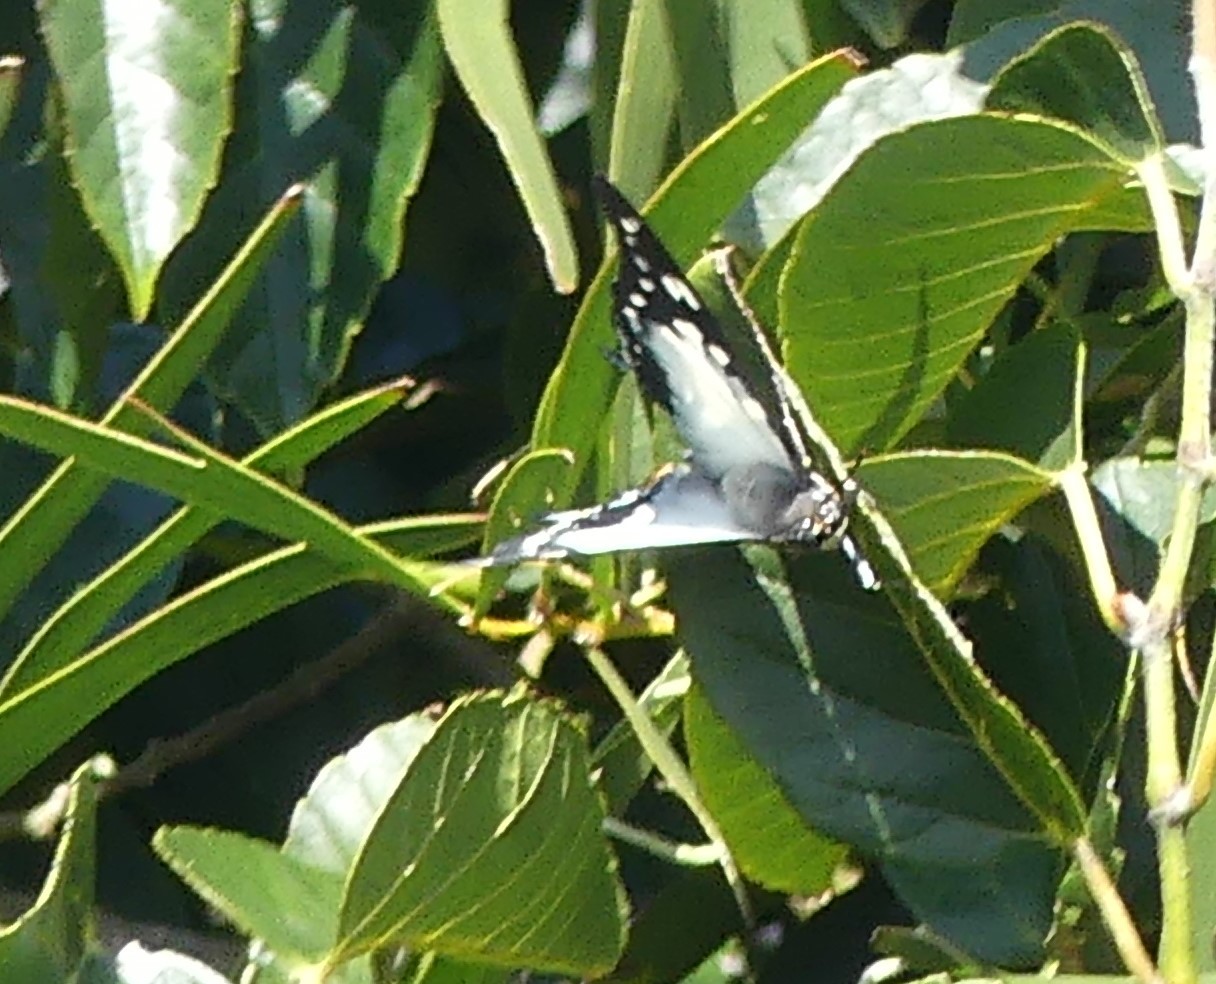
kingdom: Animalia
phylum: Arthropoda
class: Insecta
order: Lepidoptera
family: Pieridae
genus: Cepora
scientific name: Cepora perimale
